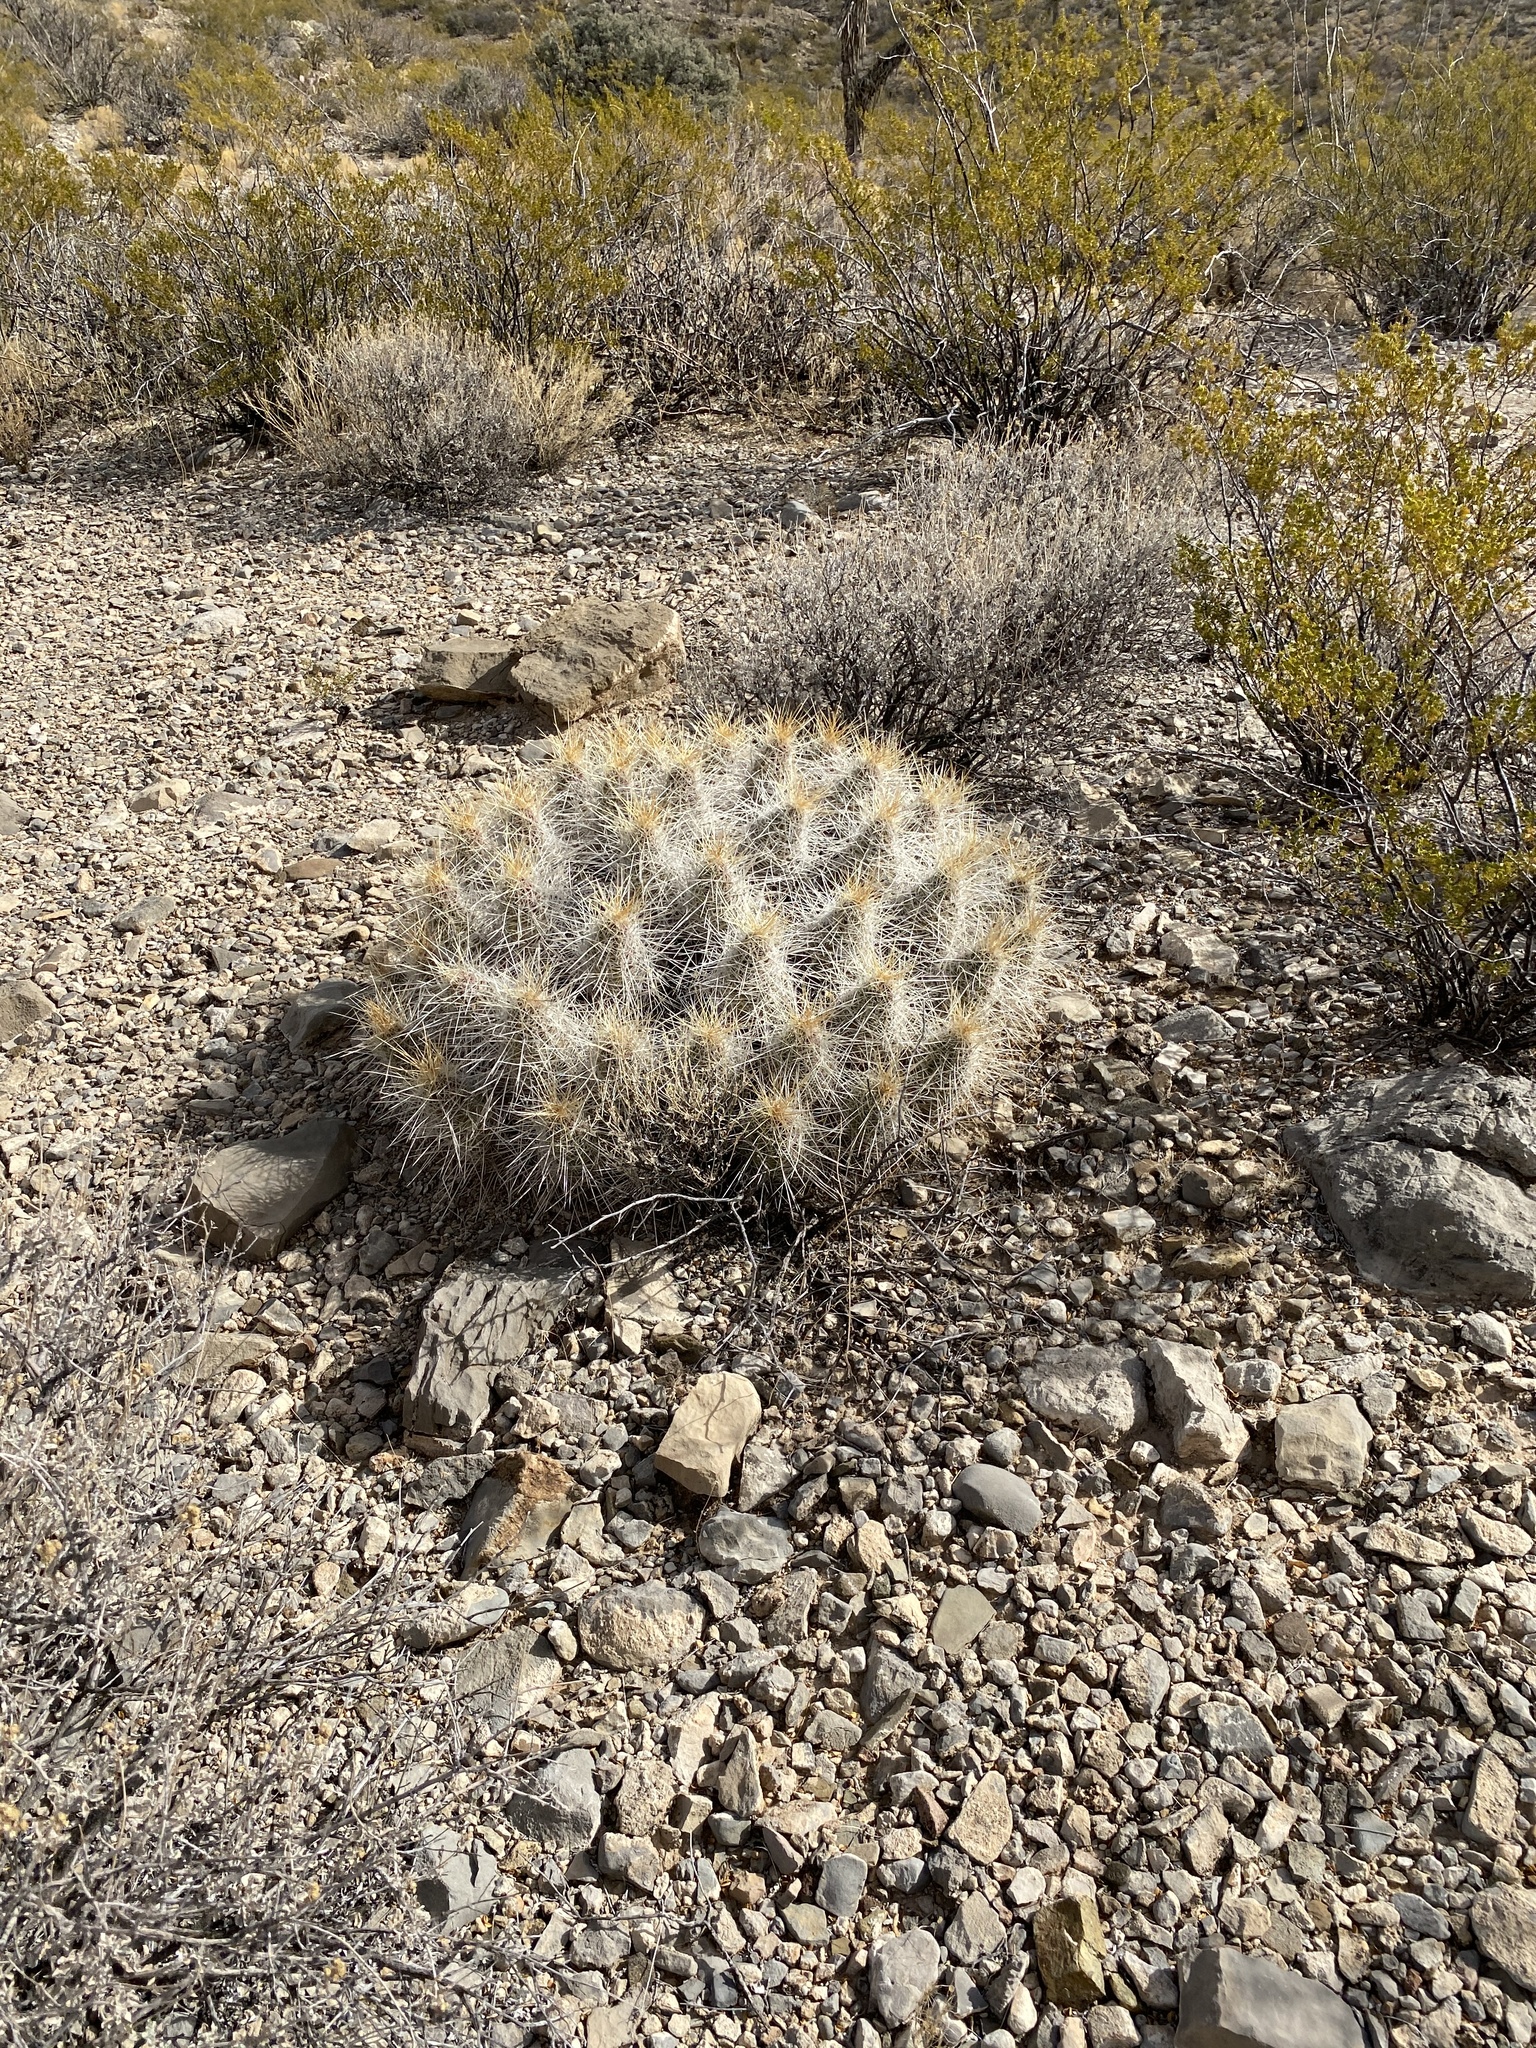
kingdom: Plantae
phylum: Tracheophyta
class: Magnoliopsida
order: Caryophyllales
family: Cactaceae
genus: Echinocereus
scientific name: Echinocereus stramineus
